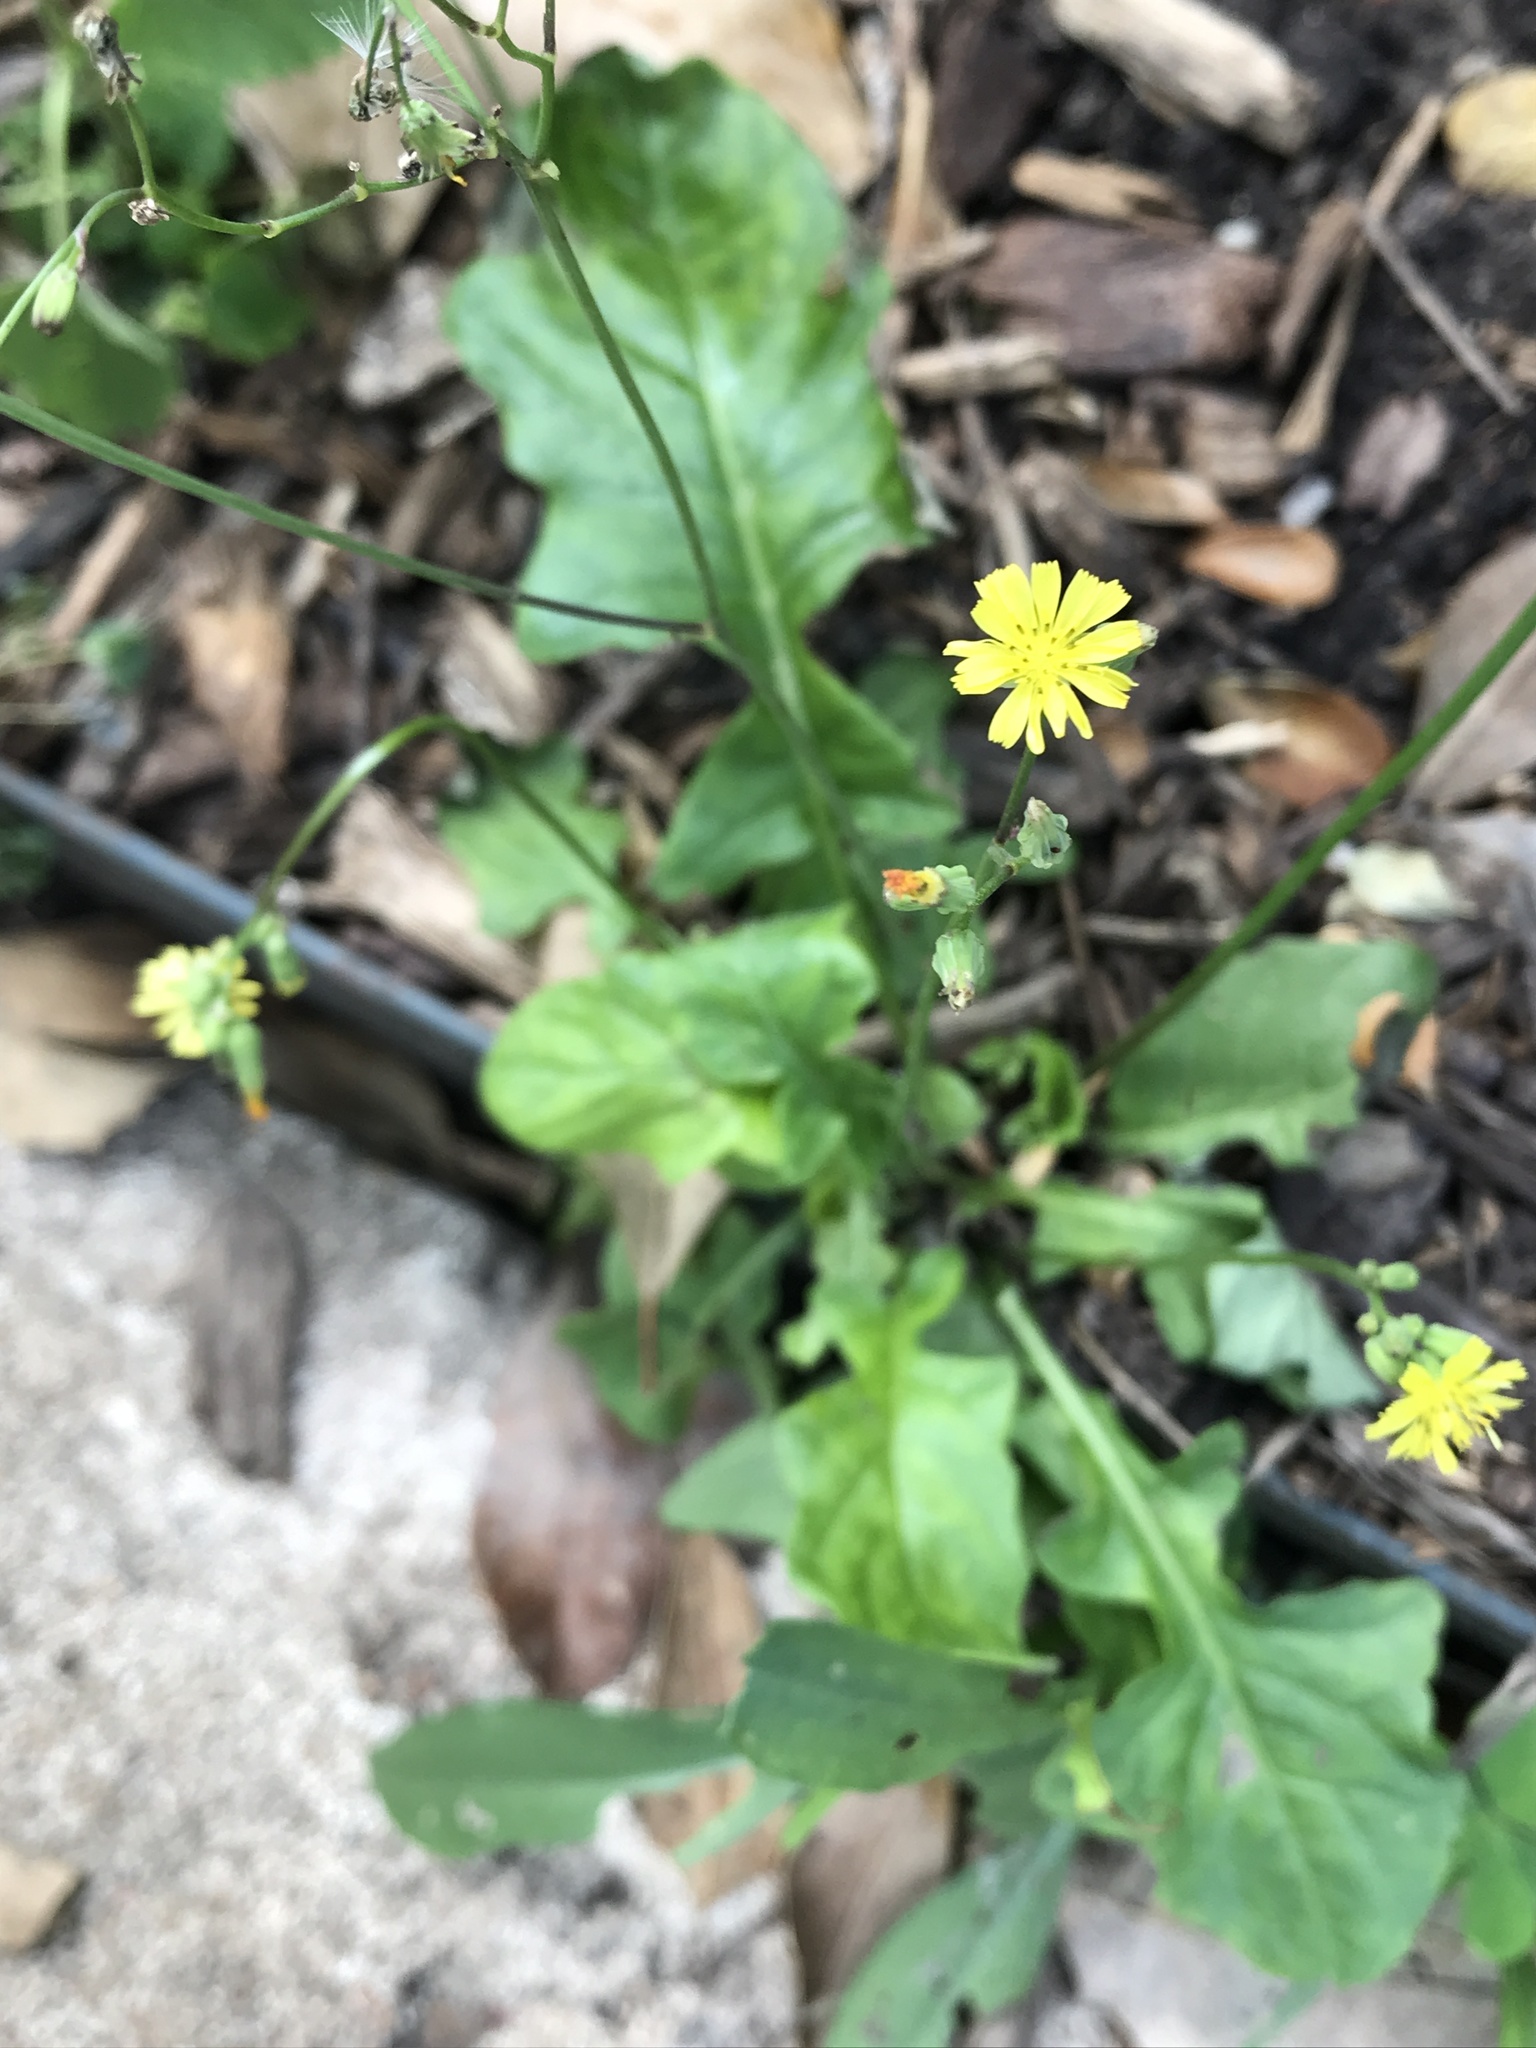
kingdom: Plantae
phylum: Tracheophyta
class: Magnoliopsida
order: Asterales
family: Asteraceae
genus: Youngia
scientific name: Youngia japonica
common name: Oriental false hawksbeard
